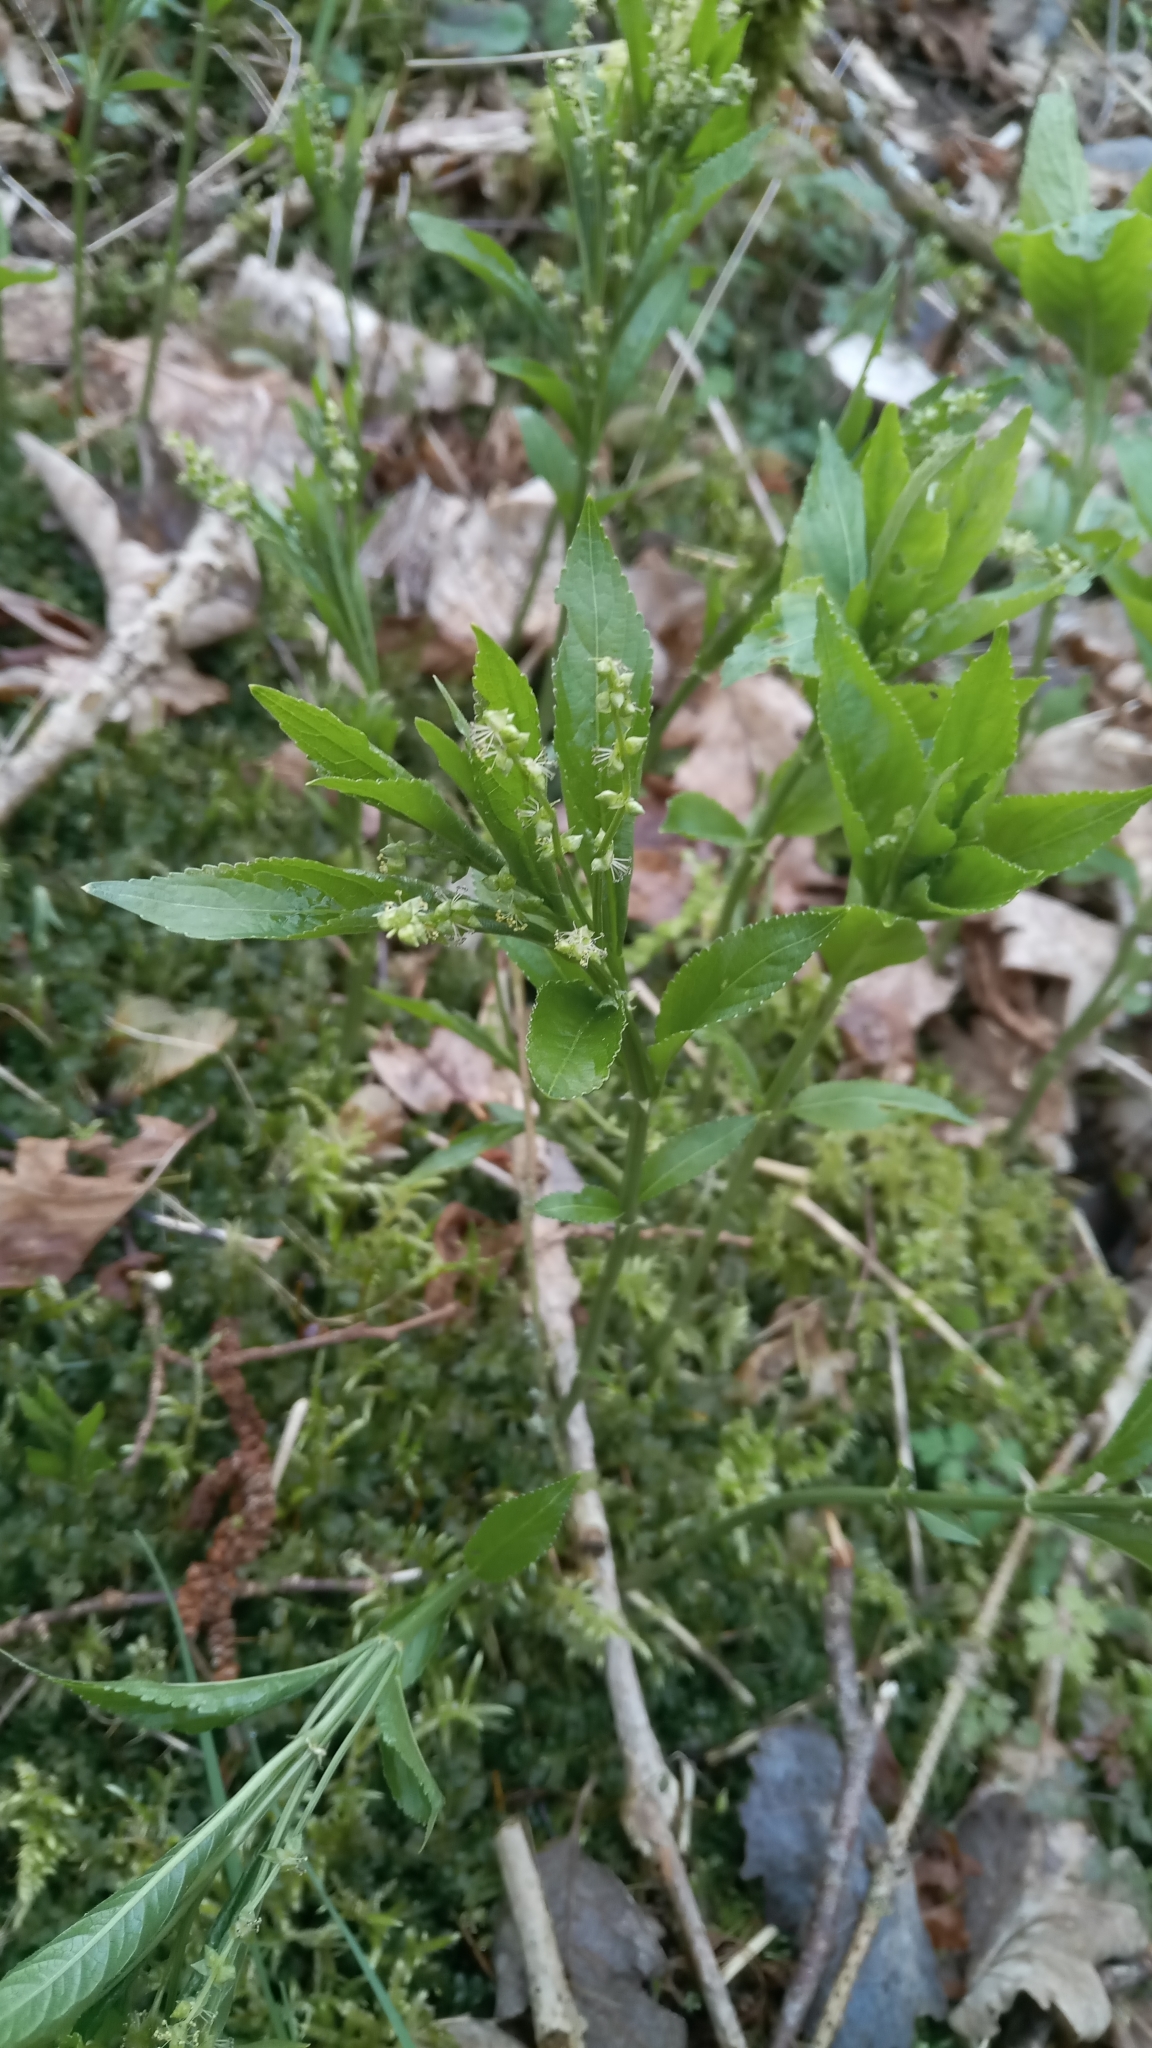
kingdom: Plantae
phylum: Tracheophyta
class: Magnoliopsida
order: Malpighiales
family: Euphorbiaceae
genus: Mercurialis
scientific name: Mercurialis perennis
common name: Dog mercury
